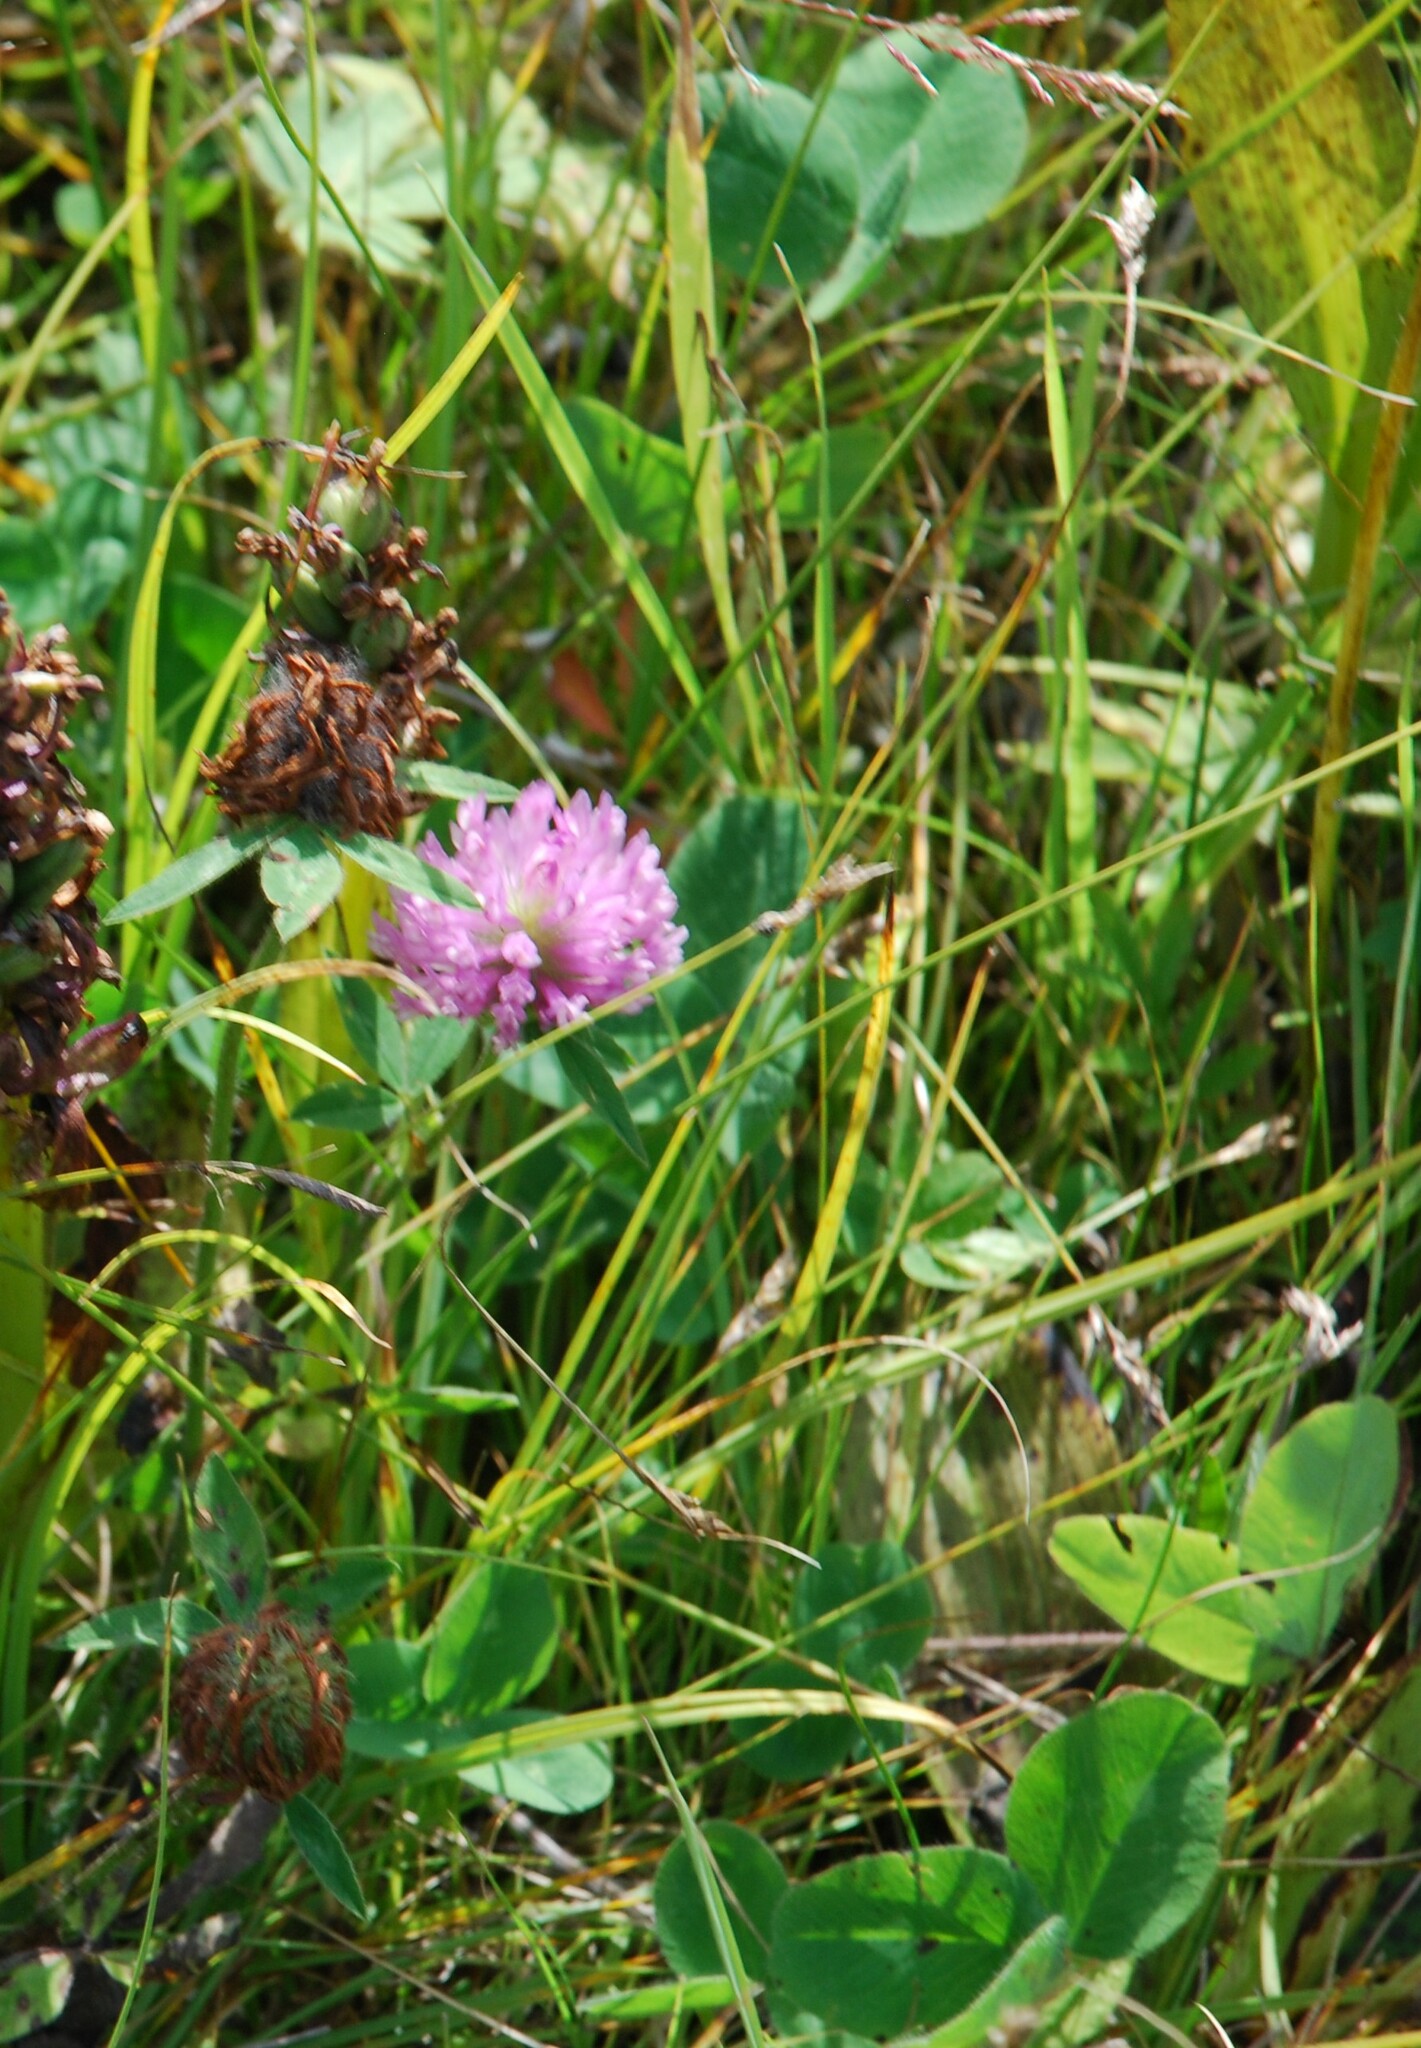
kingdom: Plantae
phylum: Tracheophyta
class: Magnoliopsida
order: Fabales
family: Fabaceae
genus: Trifolium
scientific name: Trifolium pratense
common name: Red clover
